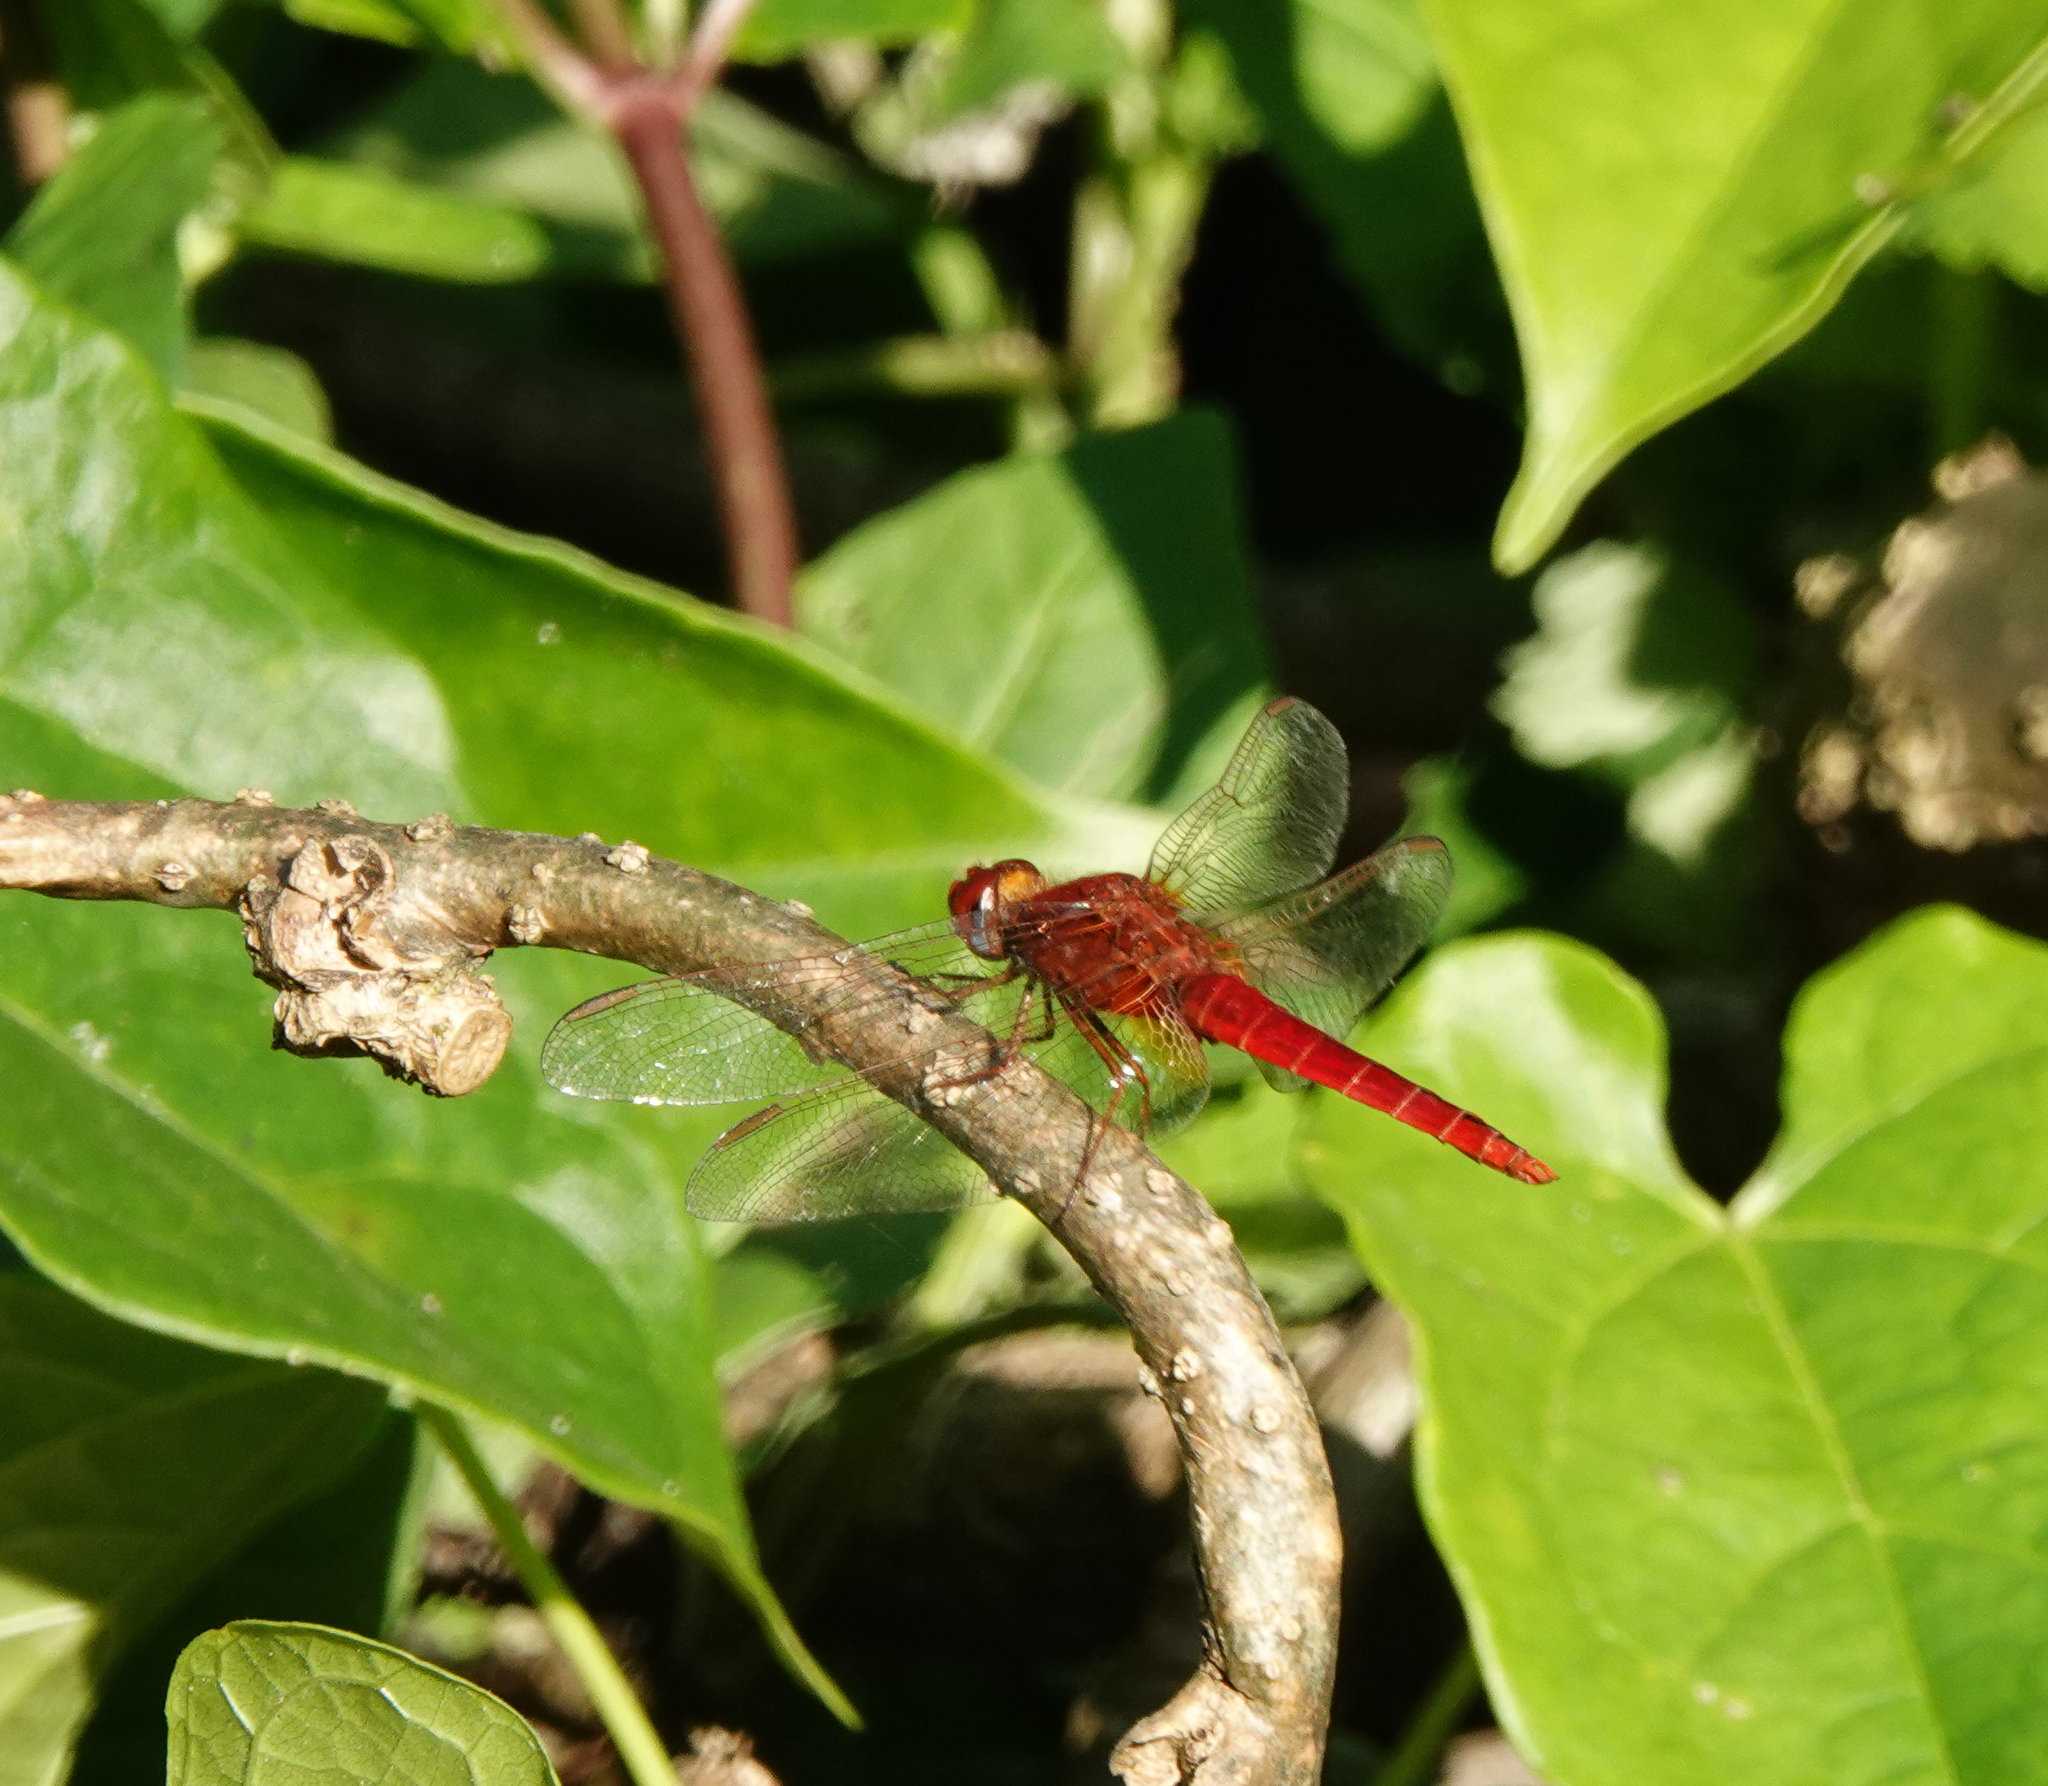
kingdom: Animalia
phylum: Arthropoda
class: Insecta
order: Odonata
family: Libellulidae
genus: Crocothemis
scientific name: Crocothemis servilia
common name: Scarlet skimmer
